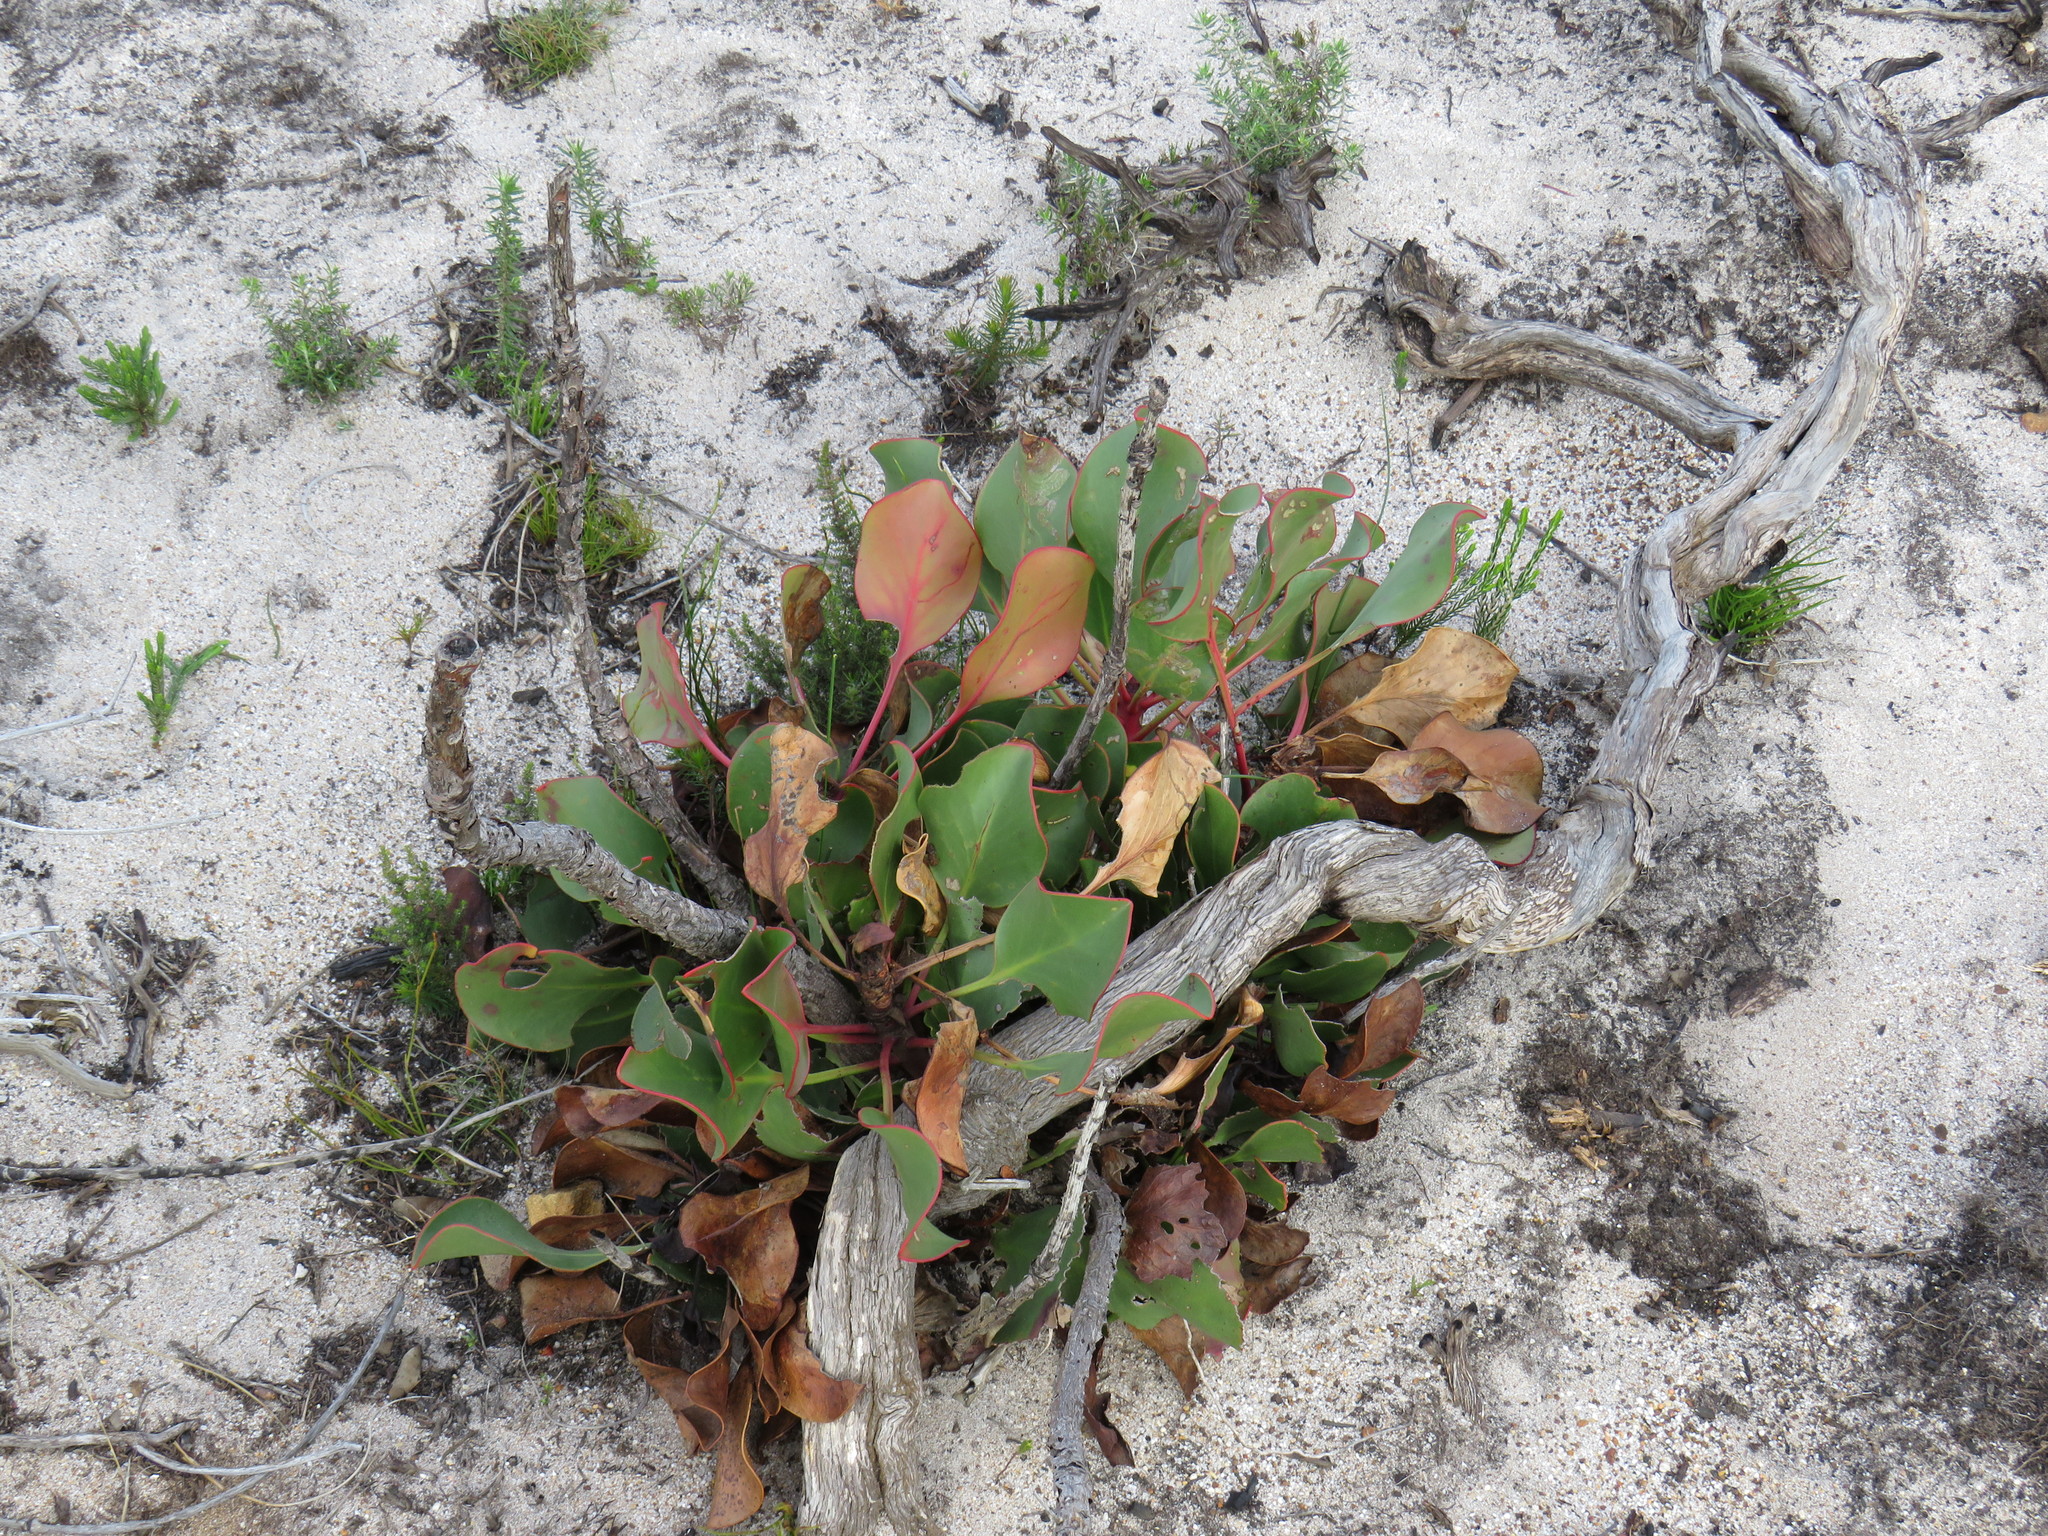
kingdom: Plantae
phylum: Tracheophyta
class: Magnoliopsida
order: Proteales
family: Proteaceae
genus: Protea
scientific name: Protea cynaroides
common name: King protea
